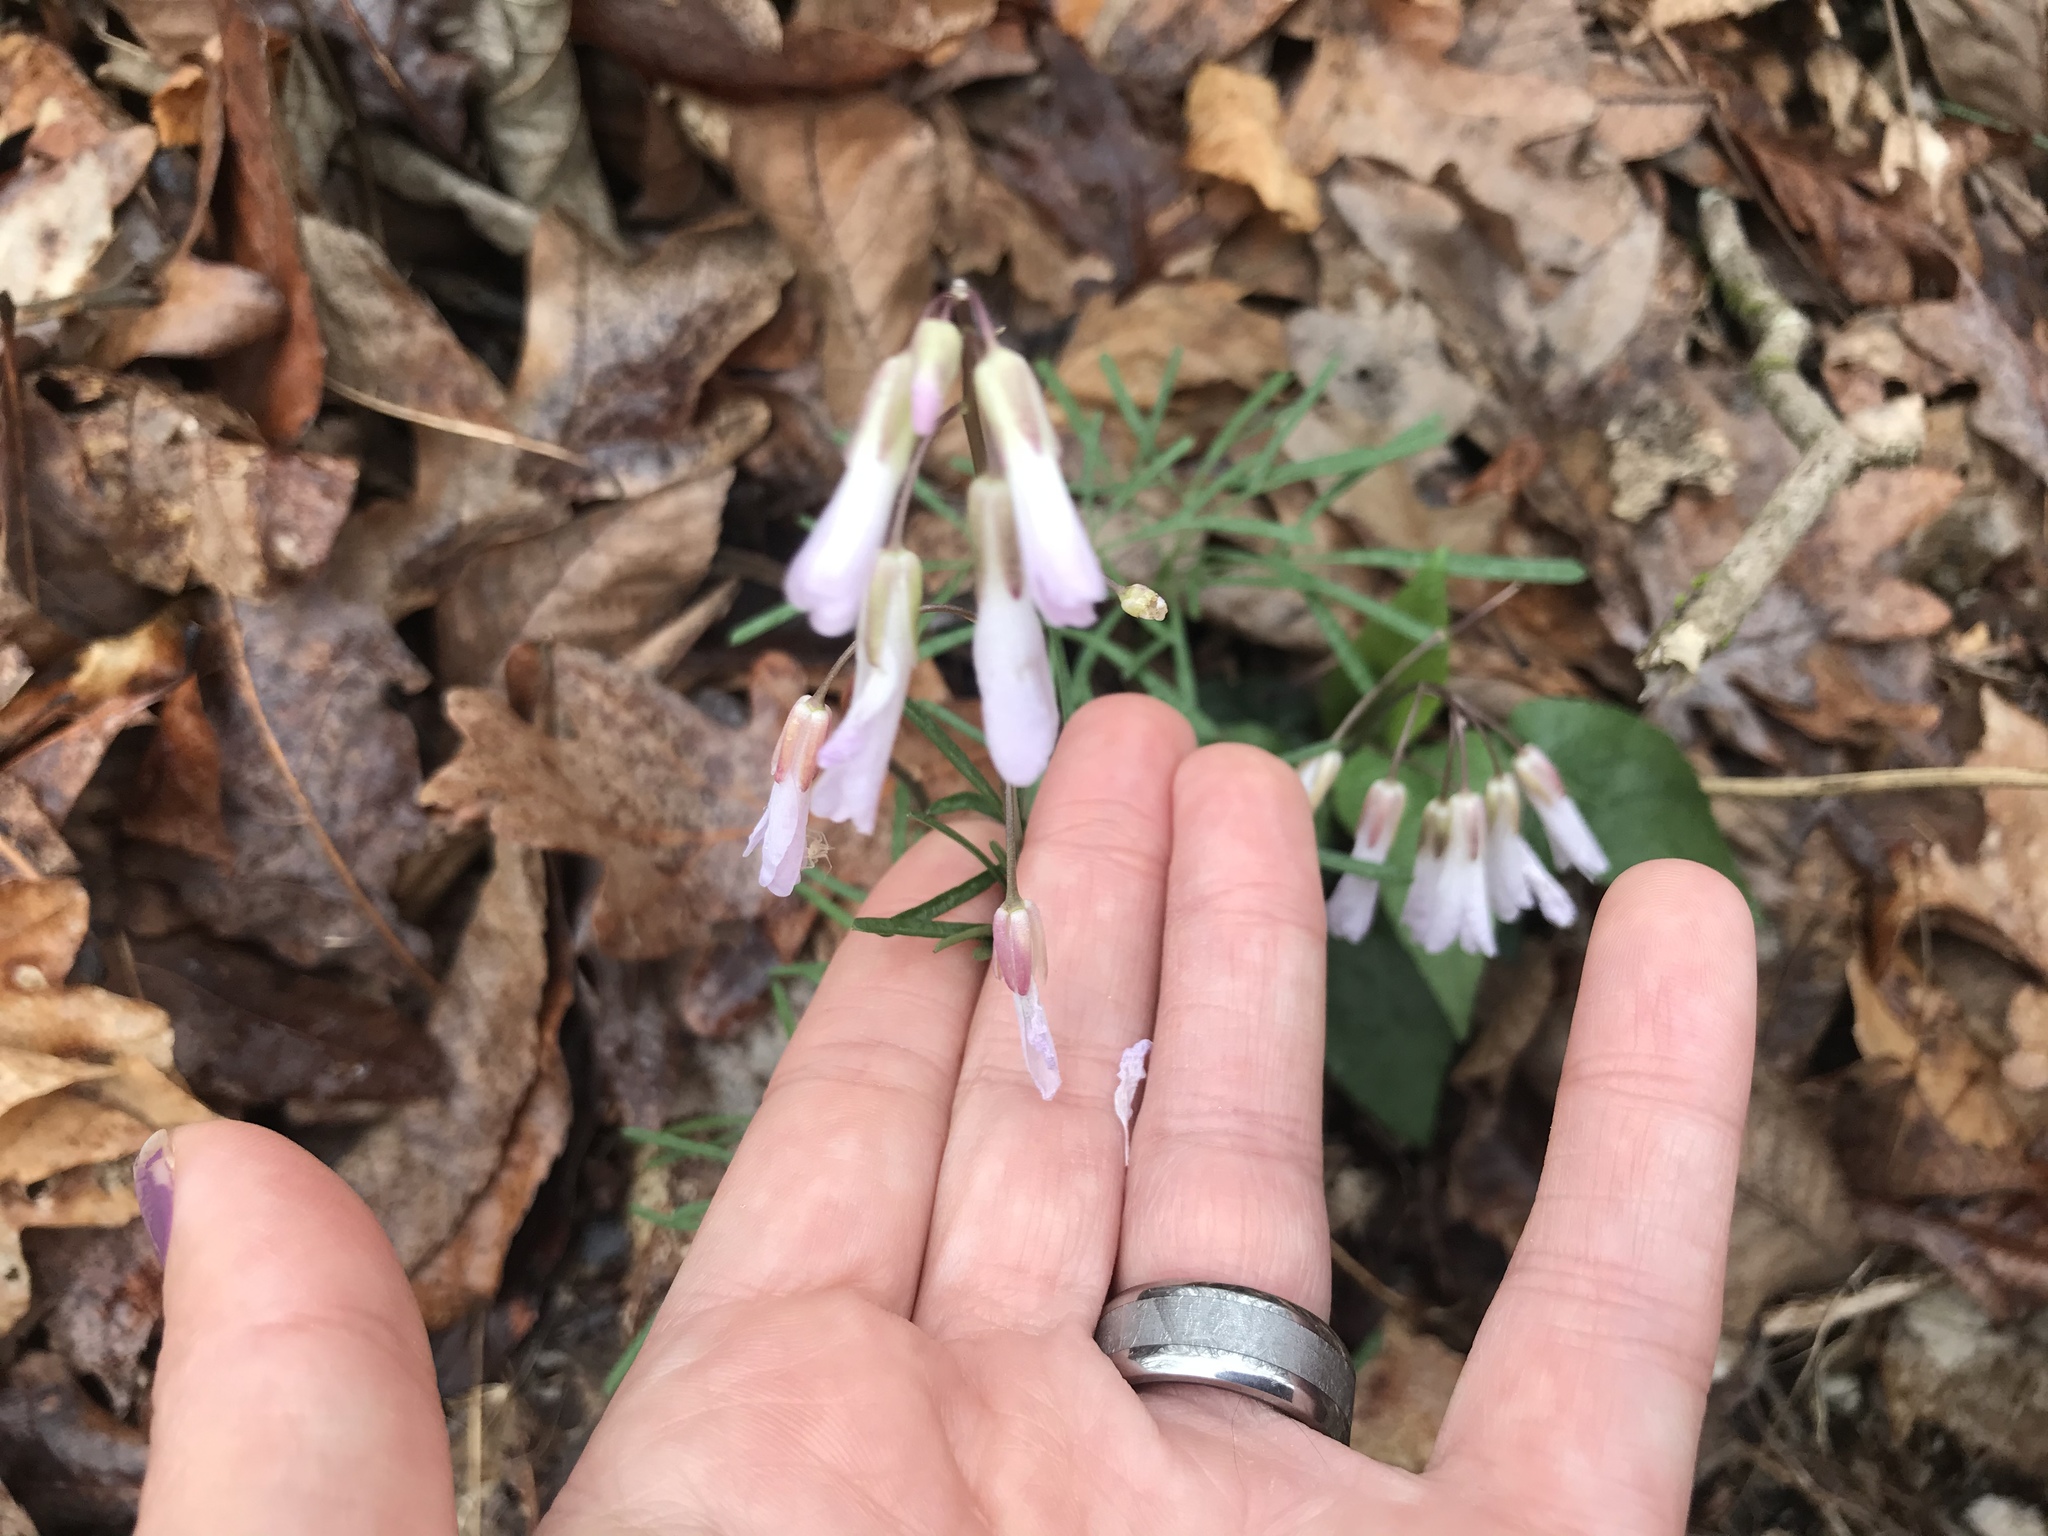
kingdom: Plantae
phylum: Tracheophyta
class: Magnoliopsida
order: Brassicales
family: Brassicaceae
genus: Cardamine
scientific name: Cardamine dissecta
